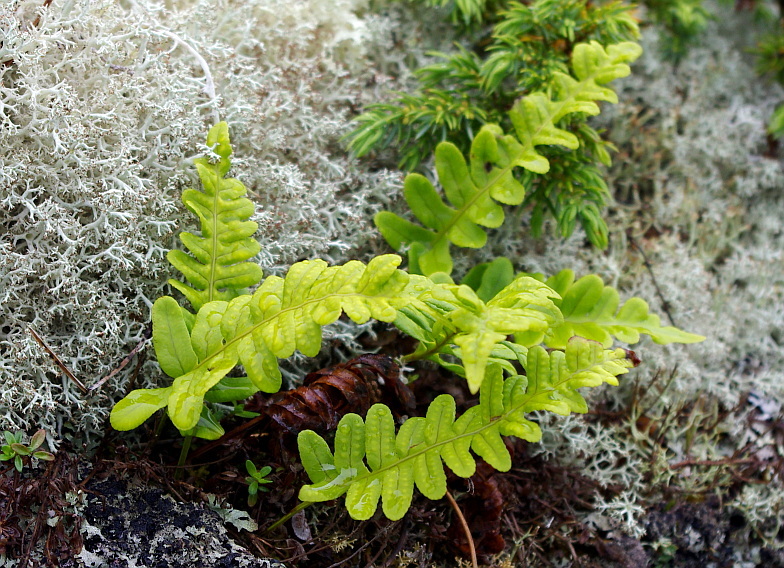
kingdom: Plantae
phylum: Tracheophyta
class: Polypodiopsida
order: Polypodiales
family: Polypodiaceae
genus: Polypodium
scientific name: Polypodium vulgare
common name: Common polypody
